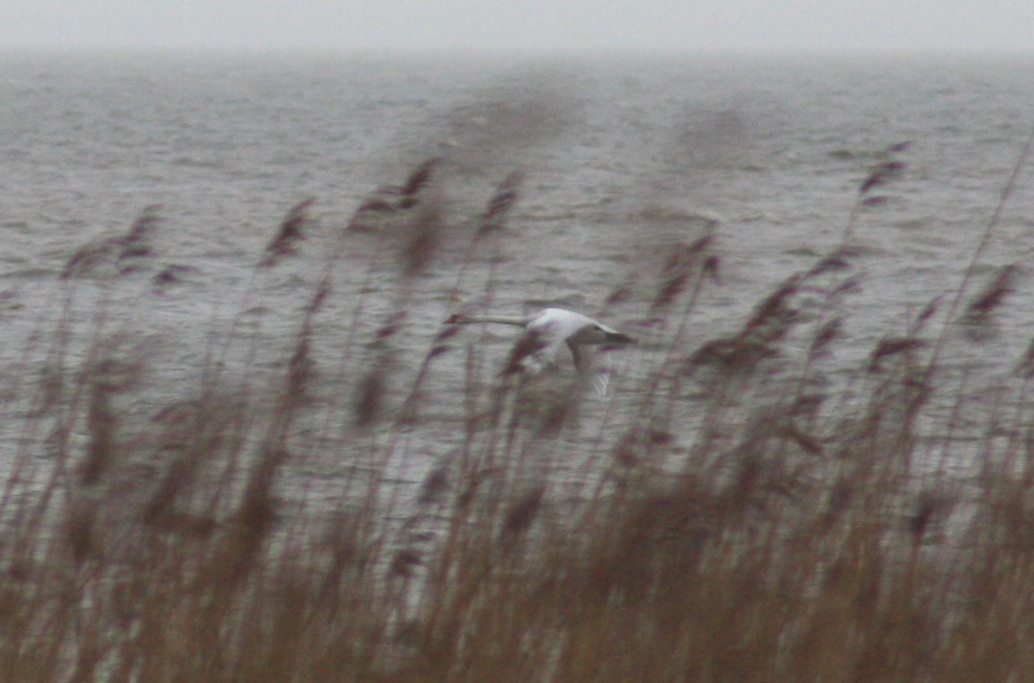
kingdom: Animalia
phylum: Chordata
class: Aves
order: Anseriformes
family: Anatidae
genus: Cygnus
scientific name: Cygnus olor
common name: Mute swan
